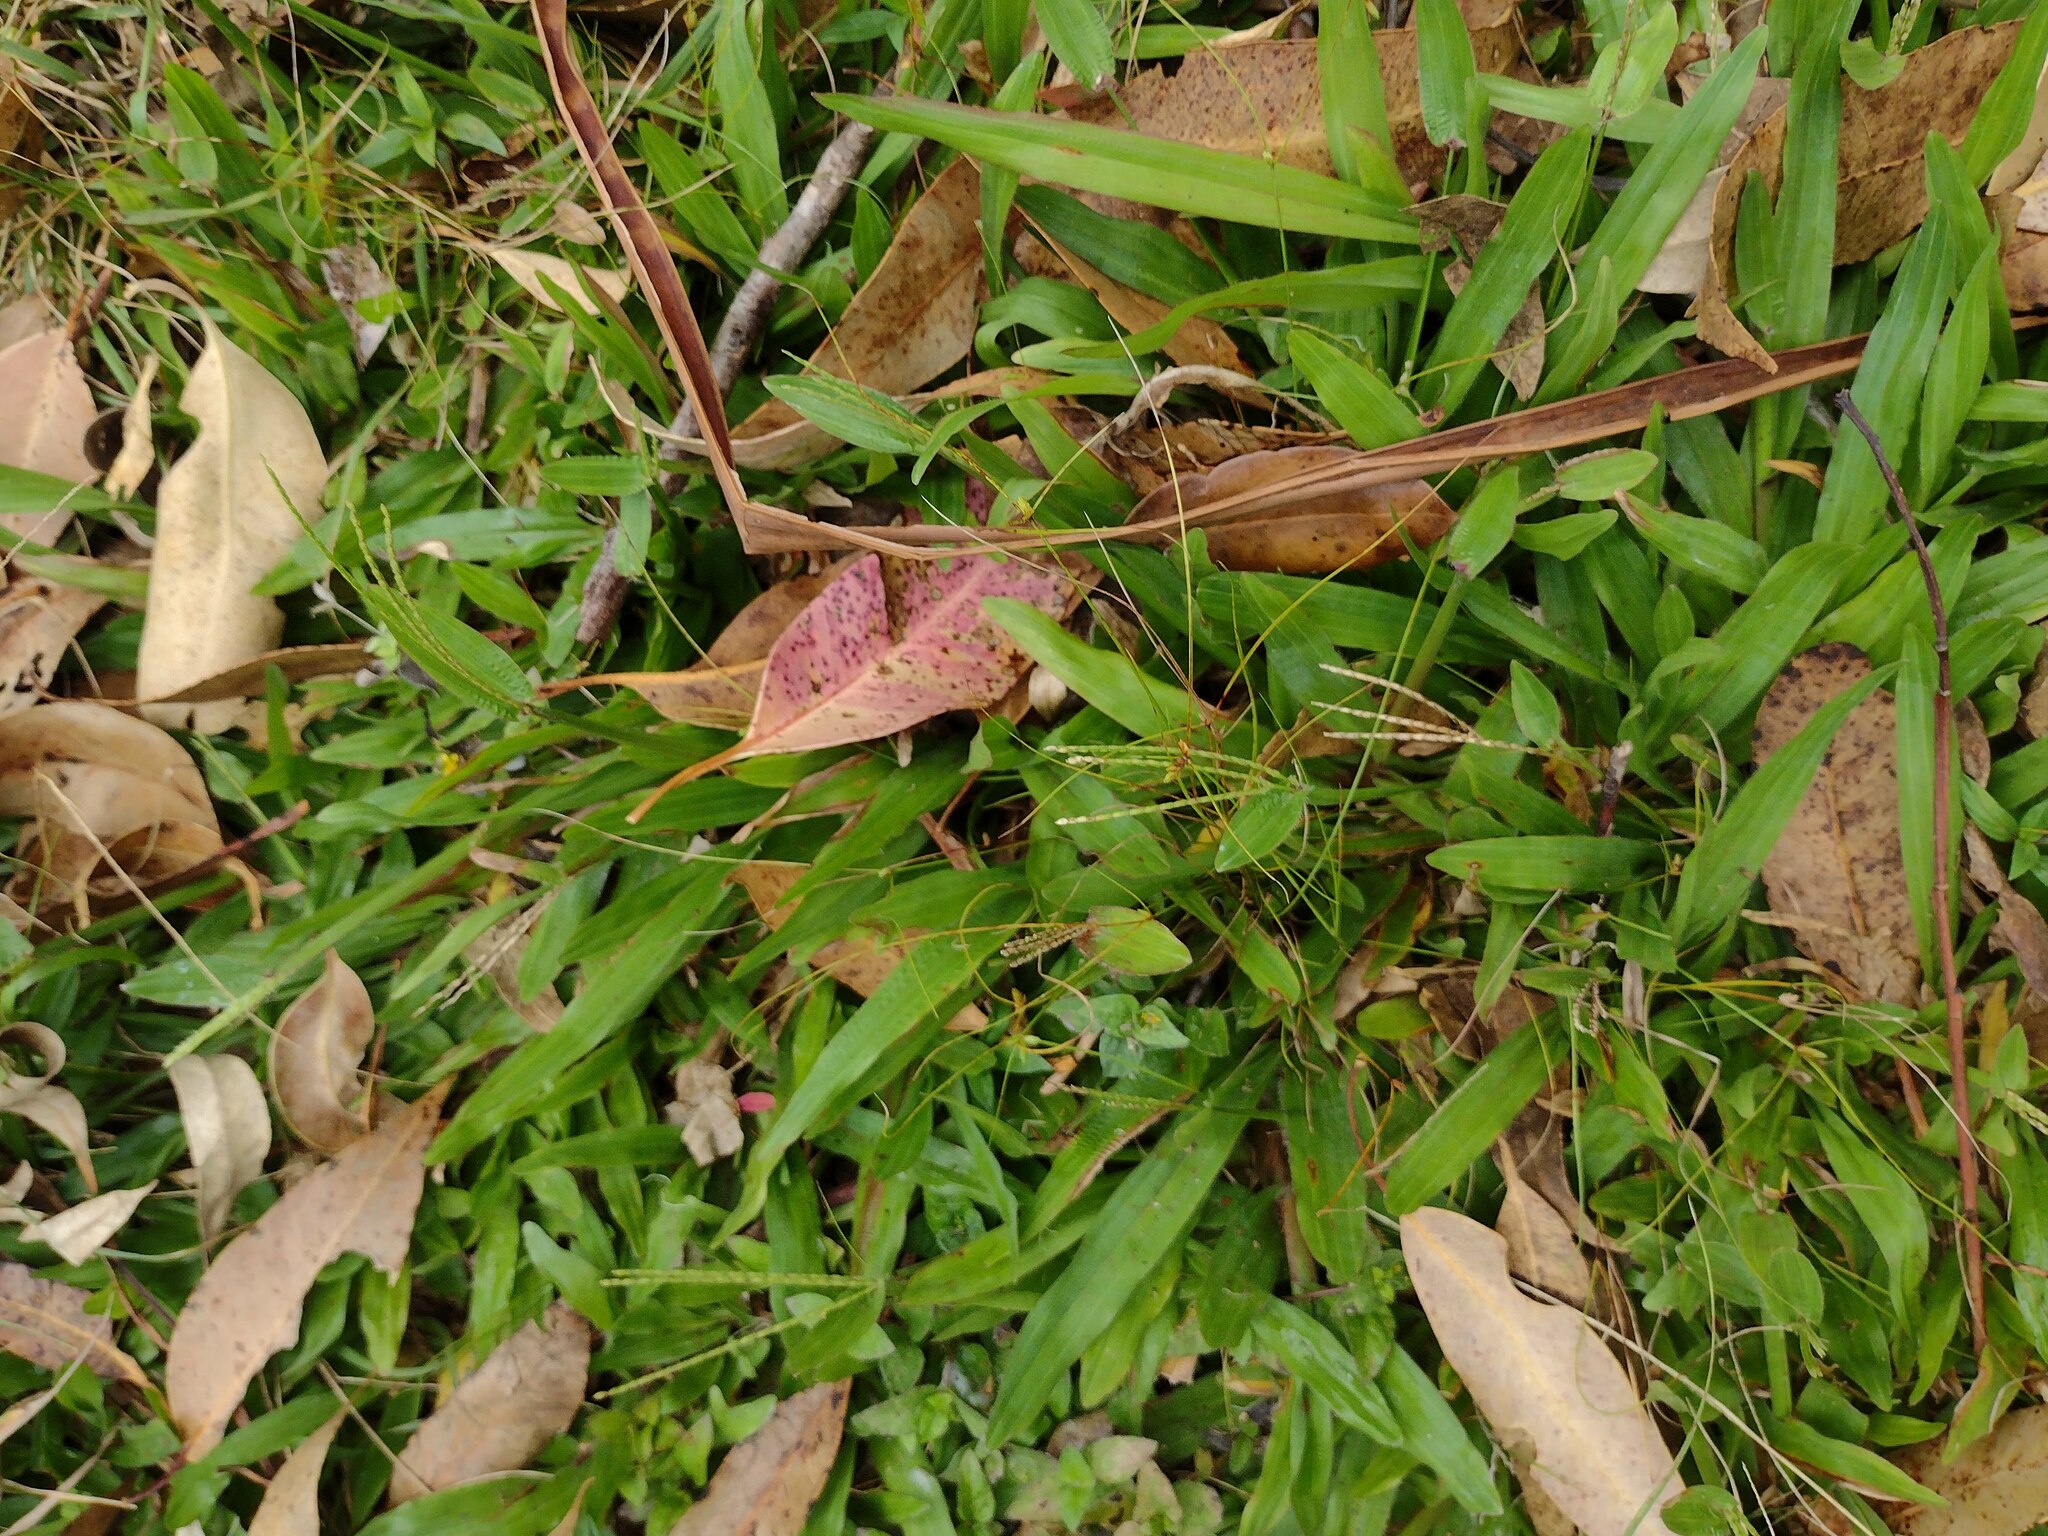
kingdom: Plantae
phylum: Tracheophyta
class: Liliopsida
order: Poales
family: Poaceae
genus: Axonopus
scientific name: Axonopus compressus
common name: American carpet grass
